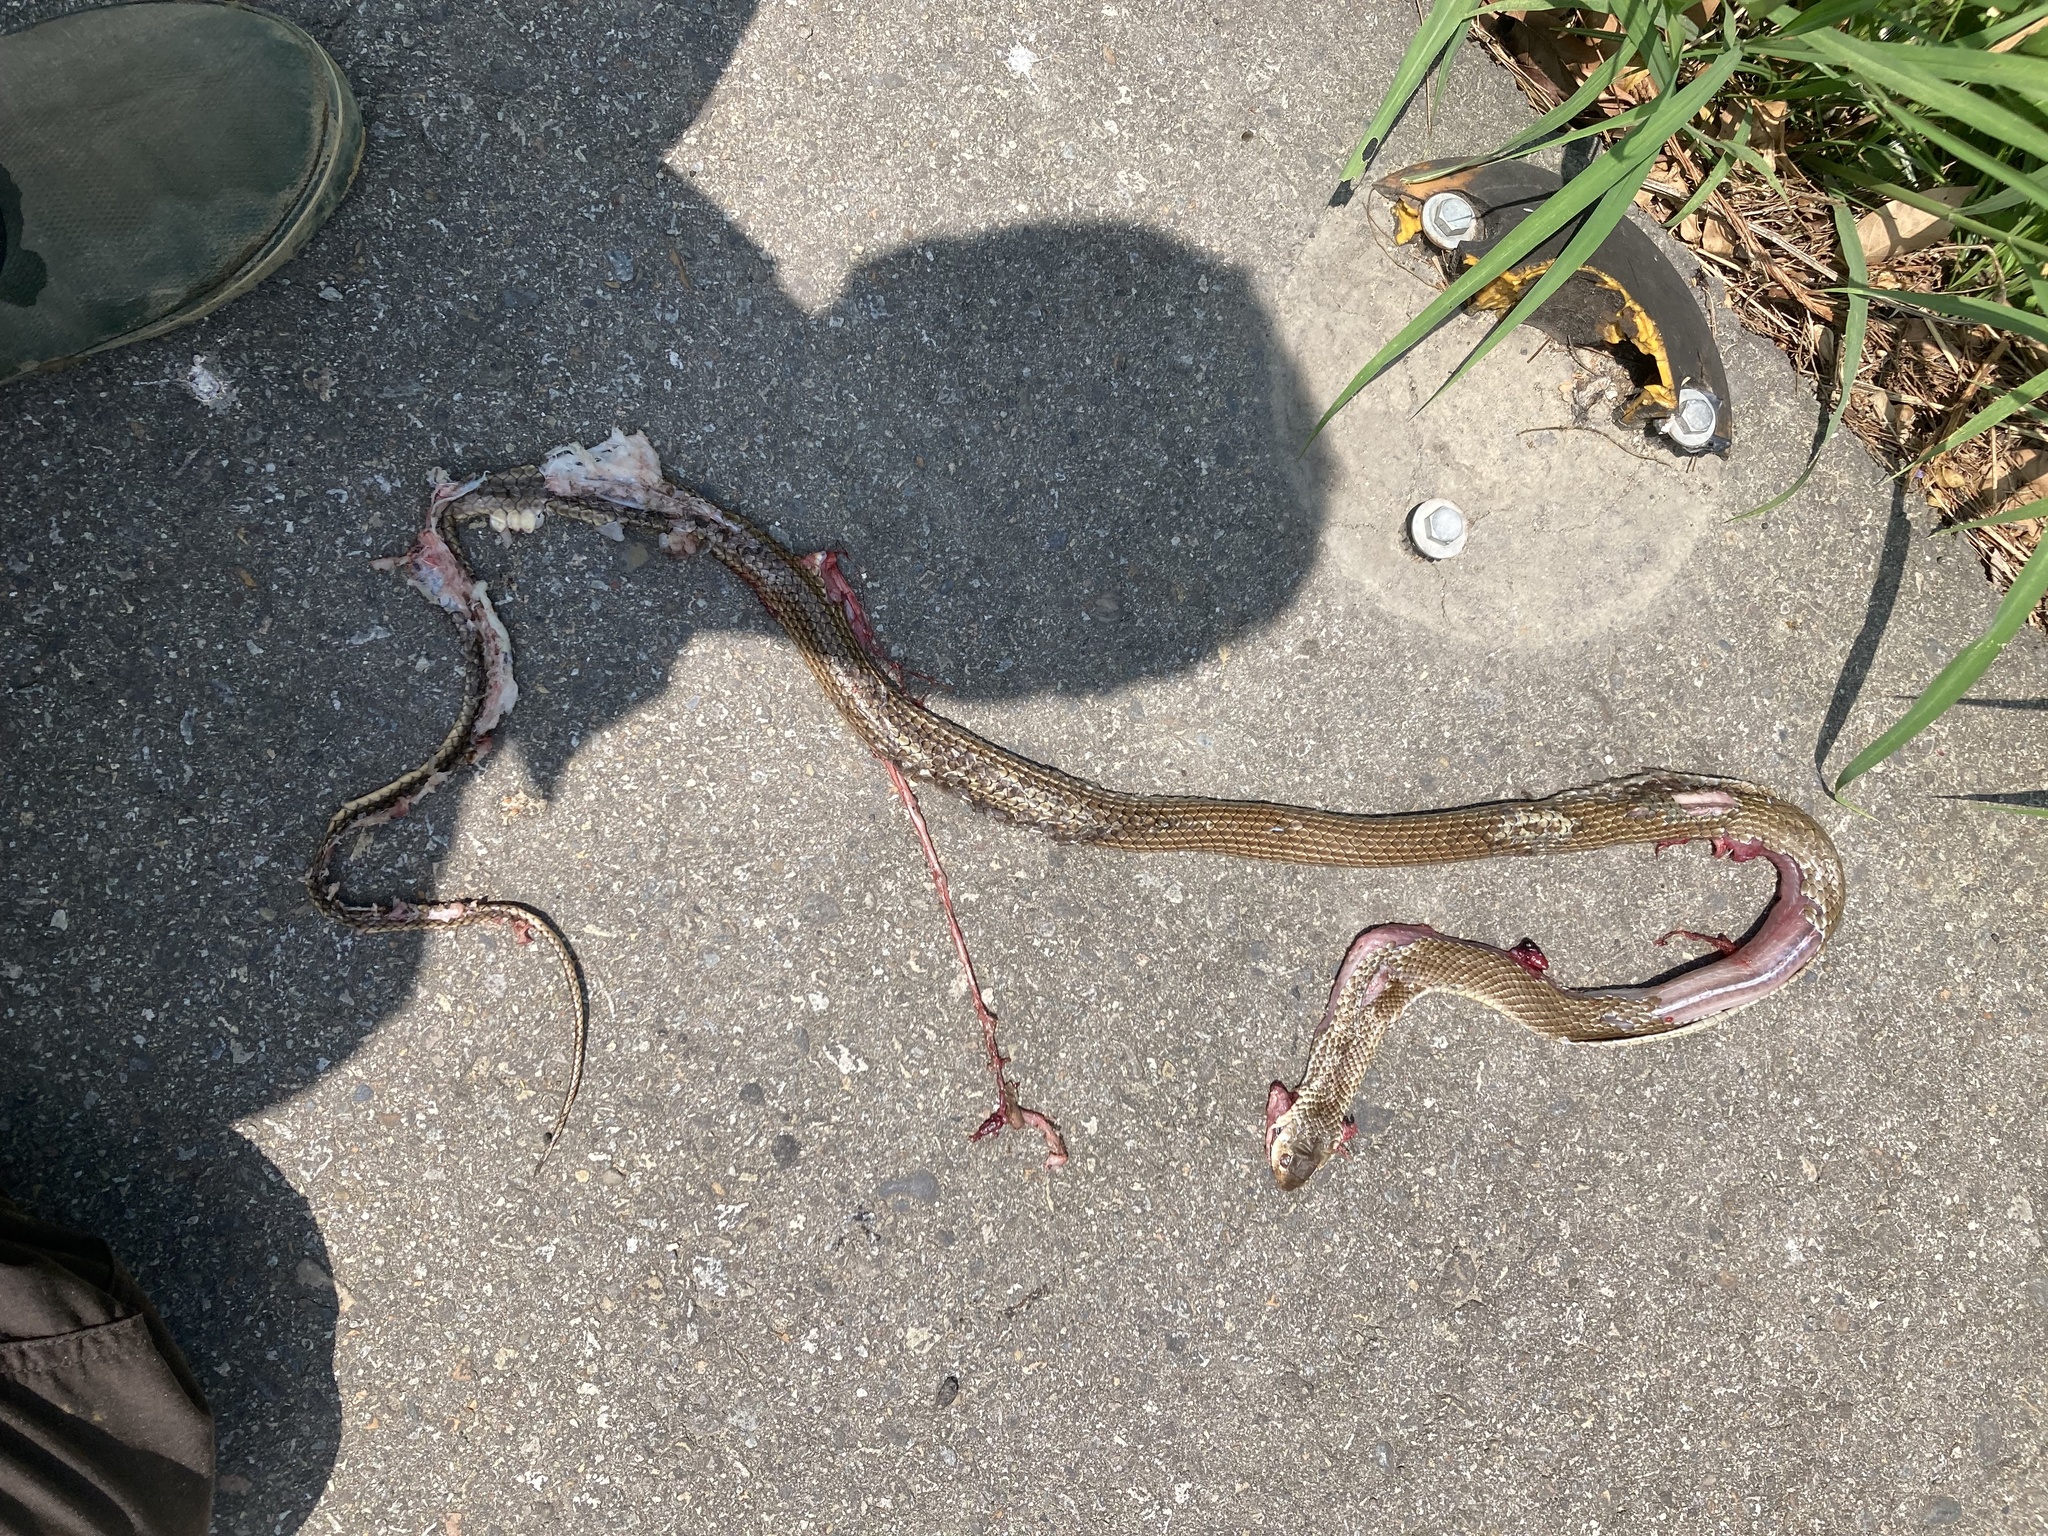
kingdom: Animalia
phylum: Chordata
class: Squamata
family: Colubridae
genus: Ptyas
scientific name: Ptyas korros
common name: Indo-chinese rat snake
